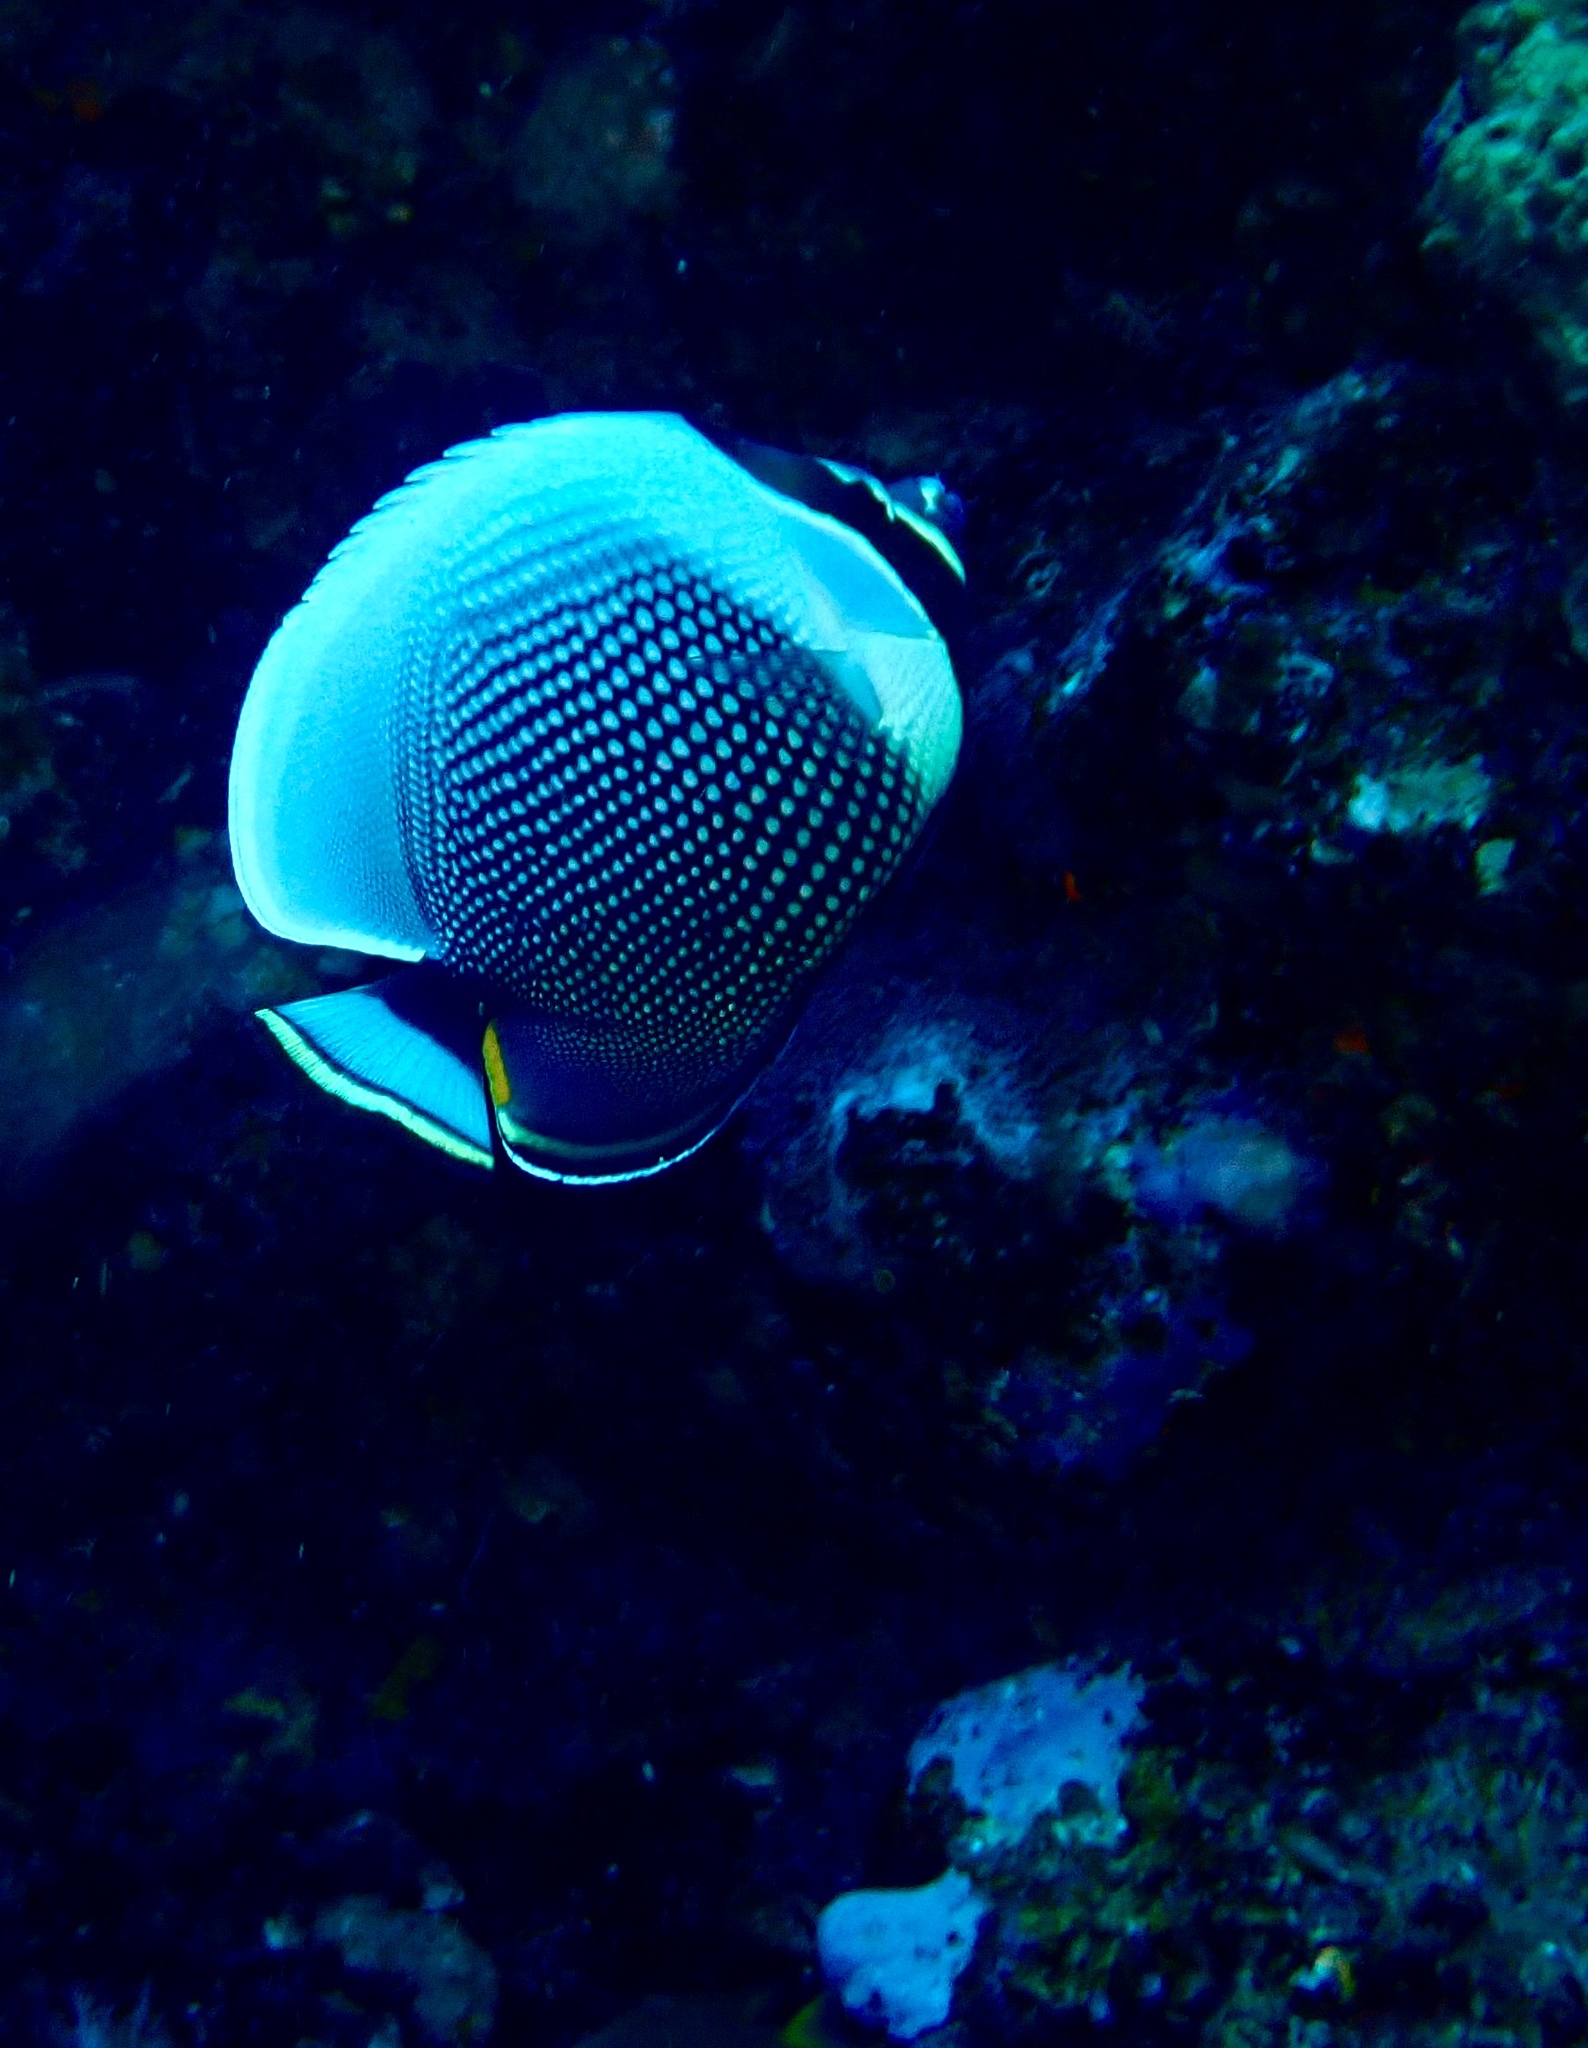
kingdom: Animalia
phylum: Chordata
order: Perciformes
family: Chaetodontidae
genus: Chaetodon
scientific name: Chaetodon reticulatus
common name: Reticulated butterflyfish
